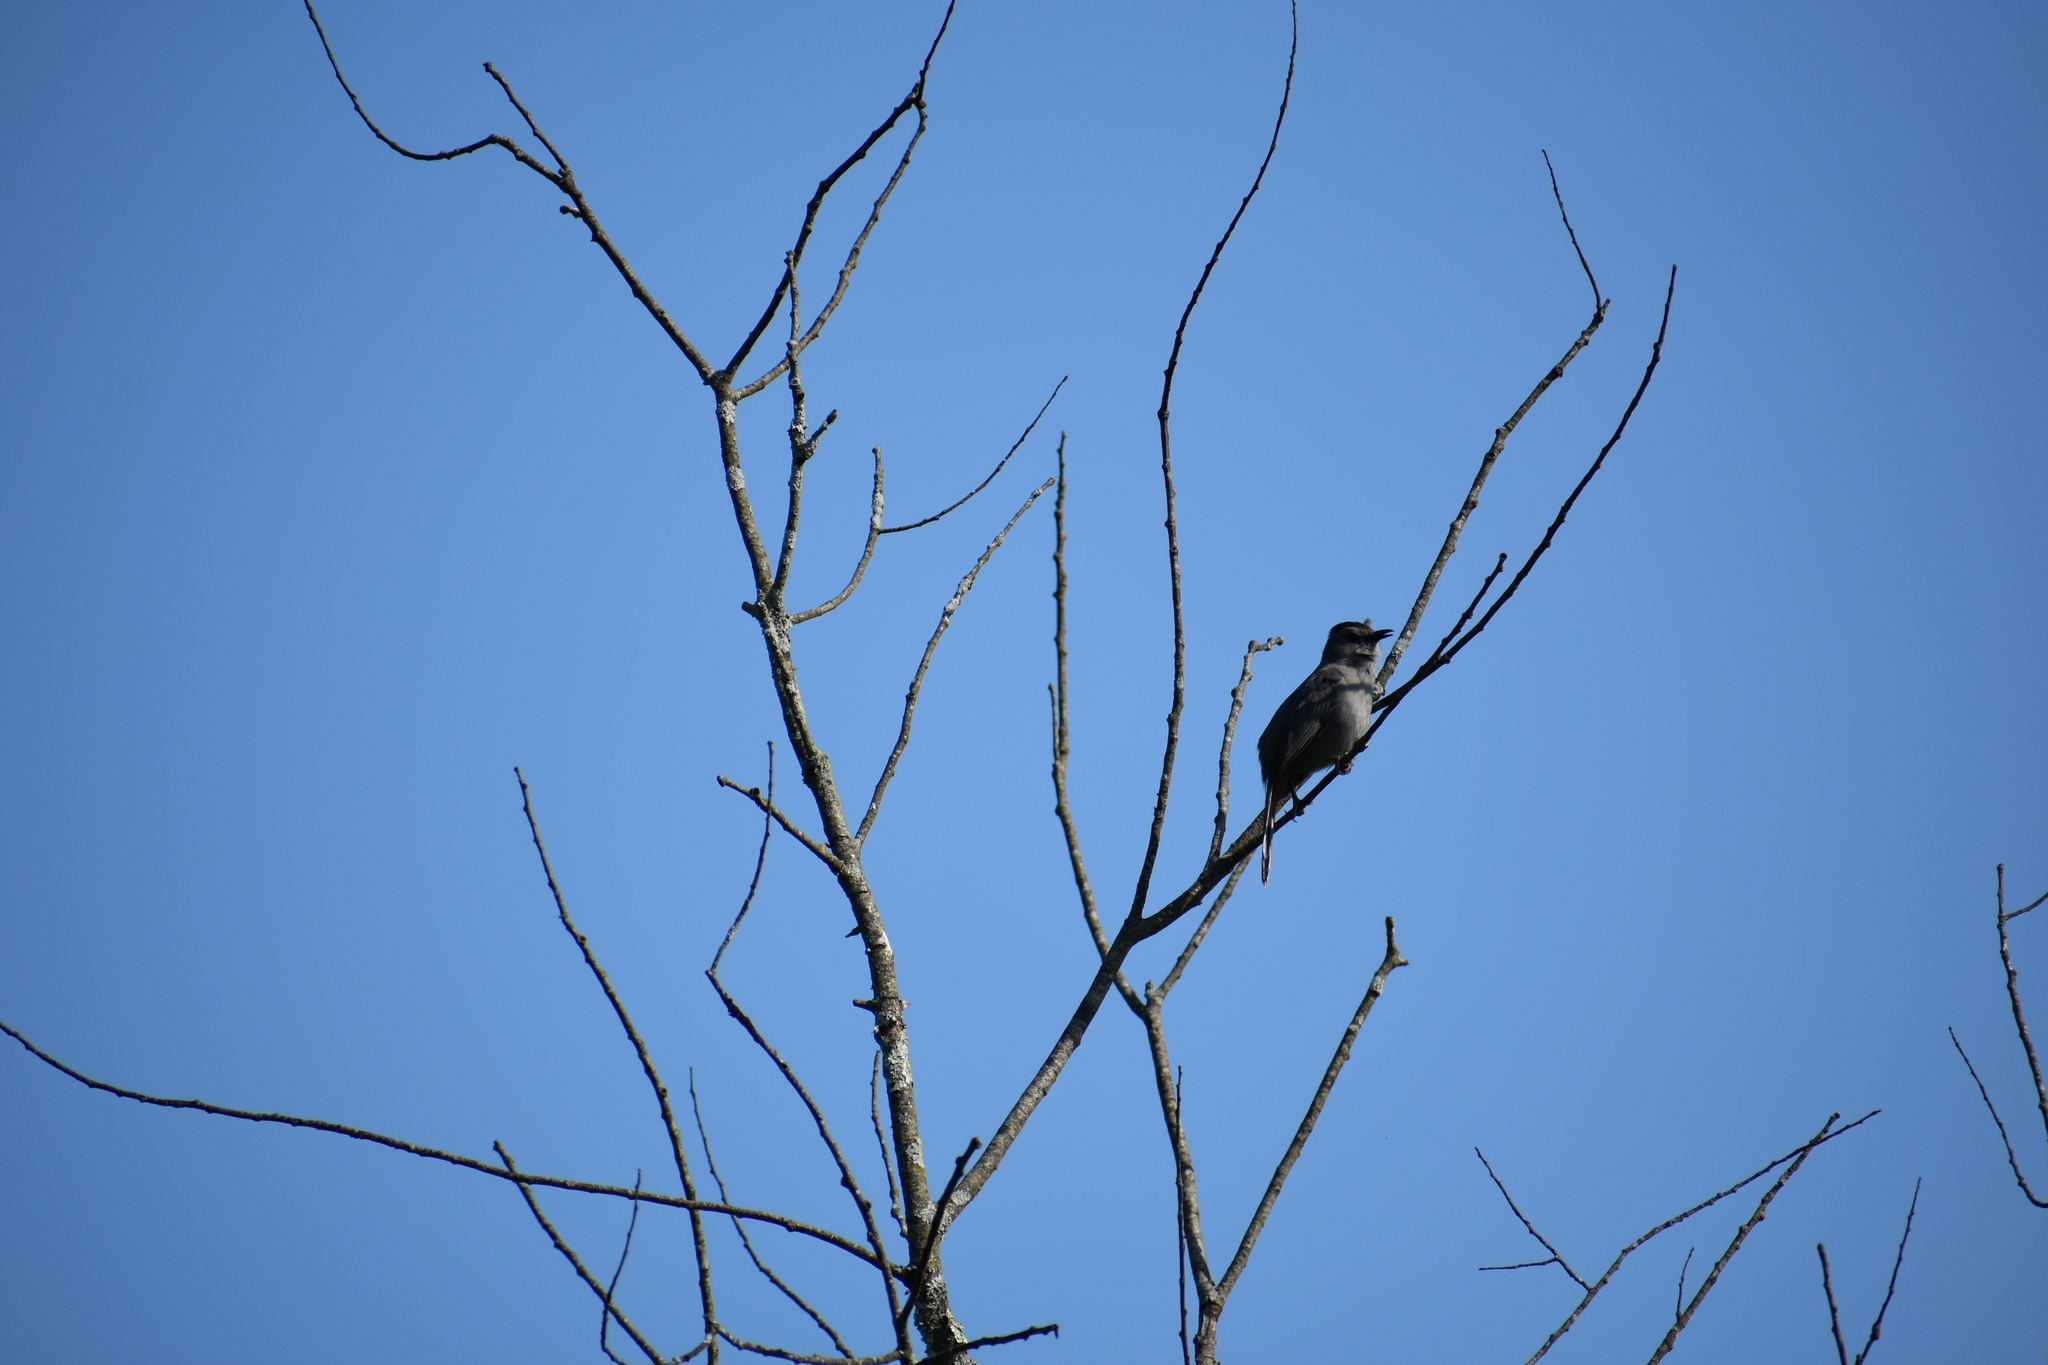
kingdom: Animalia
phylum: Chordata
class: Aves
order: Passeriformes
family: Mimidae
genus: Dumetella
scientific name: Dumetella carolinensis
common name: Gray catbird
